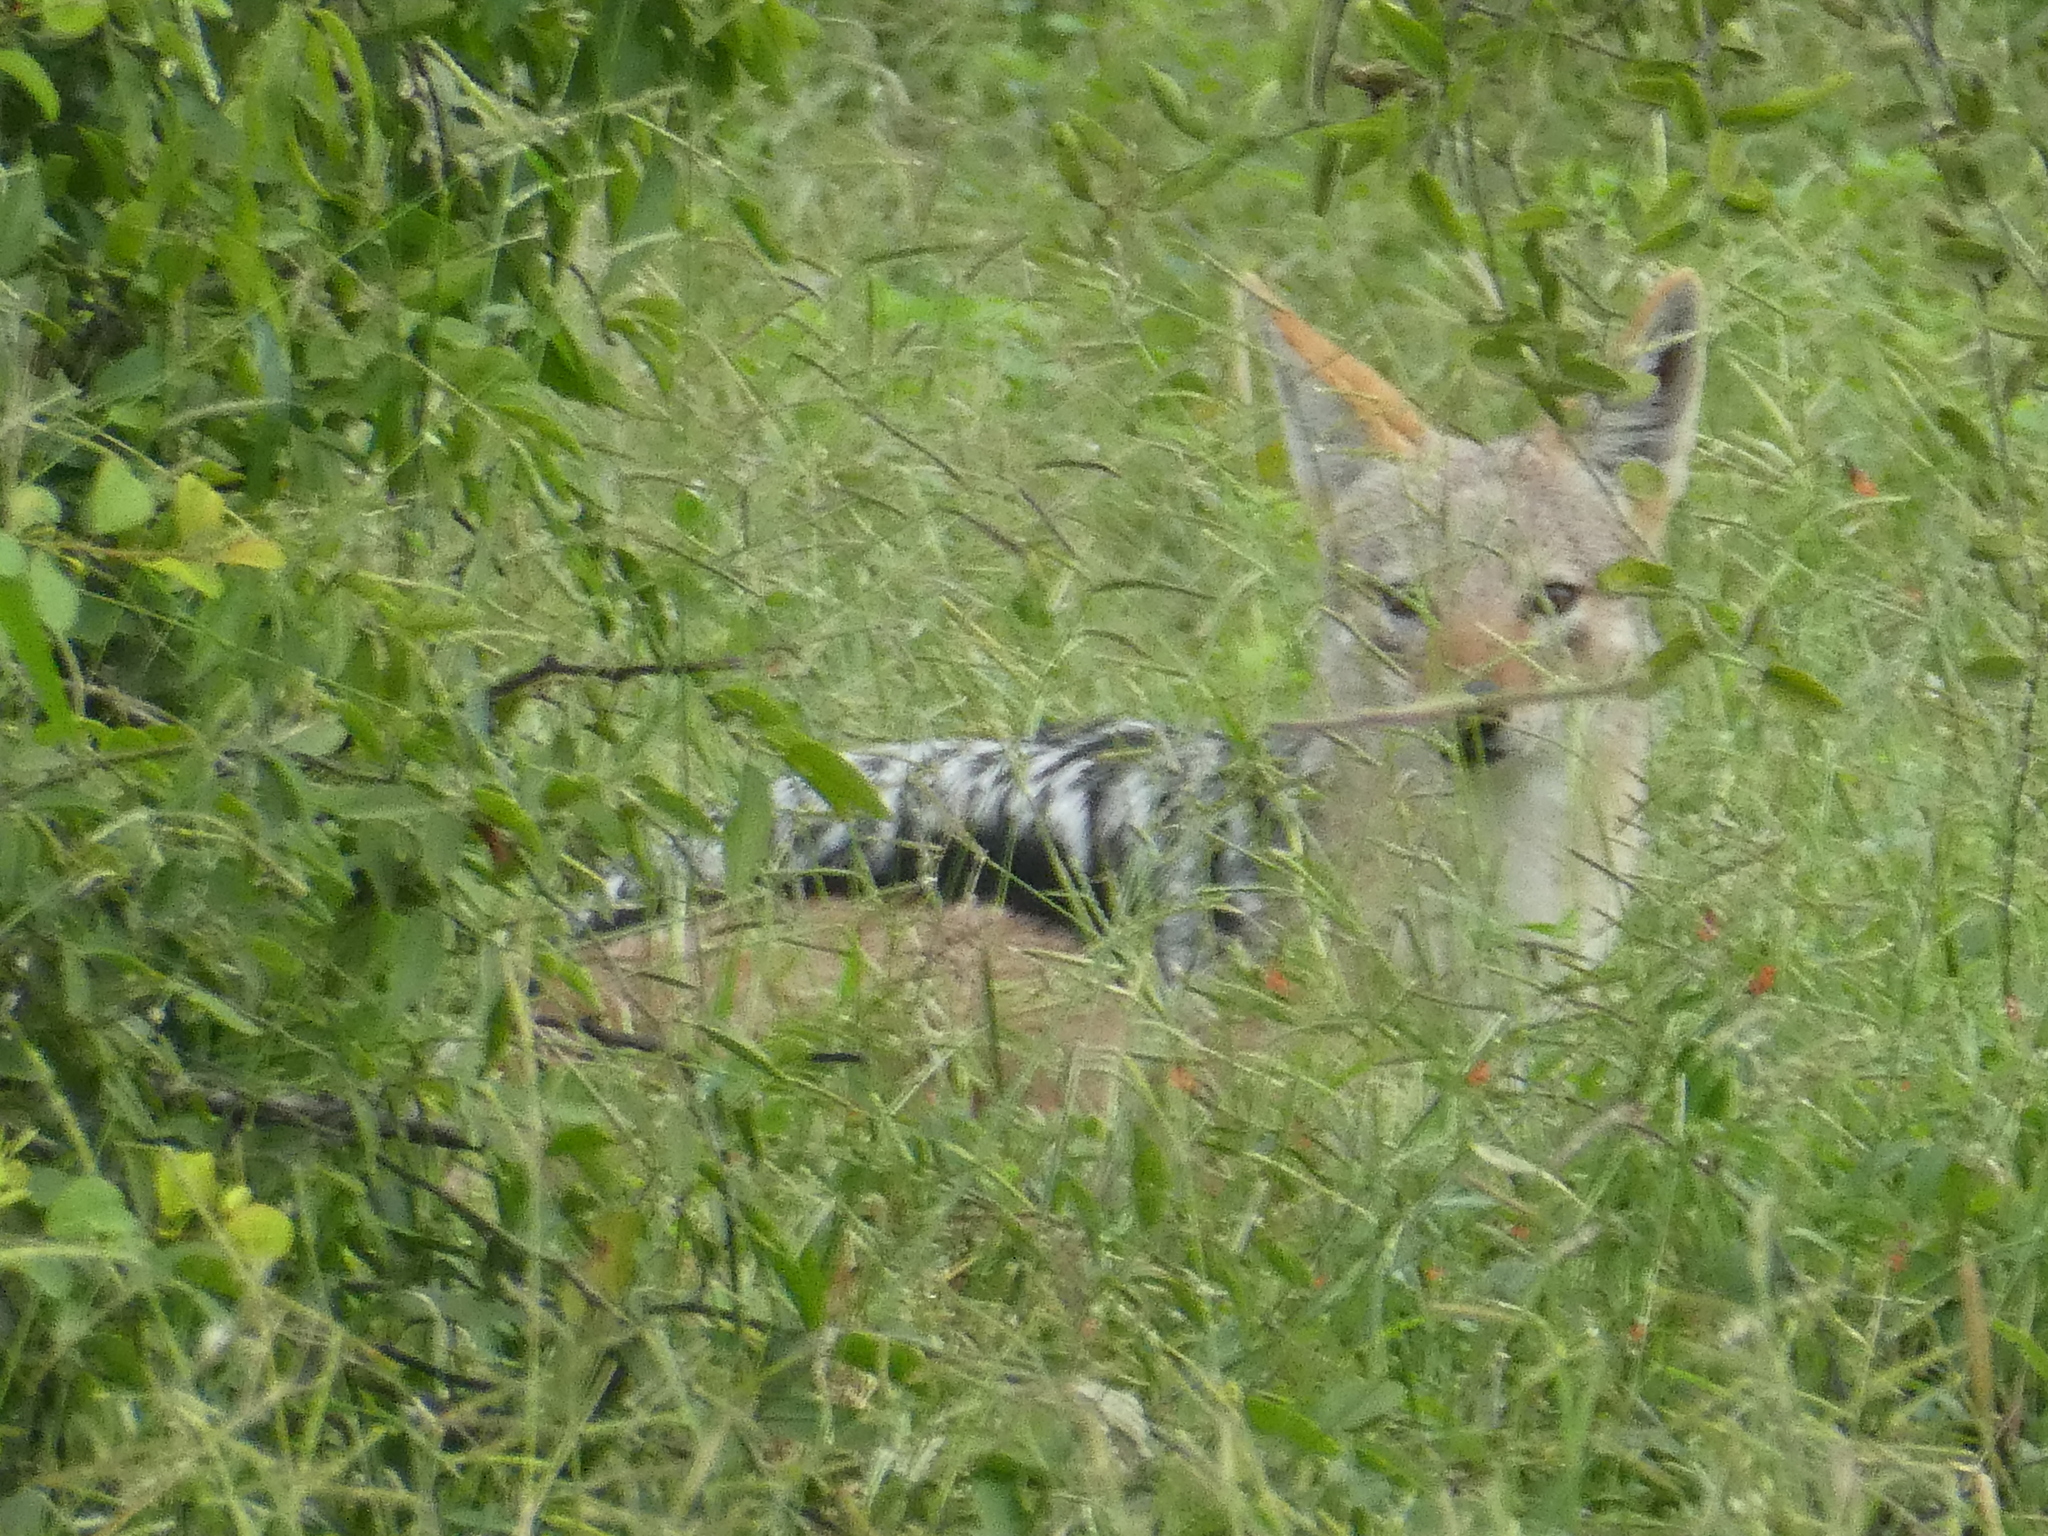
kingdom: Animalia
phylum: Chordata
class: Mammalia
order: Carnivora
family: Canidae
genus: Lupulella
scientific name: Lupulella
